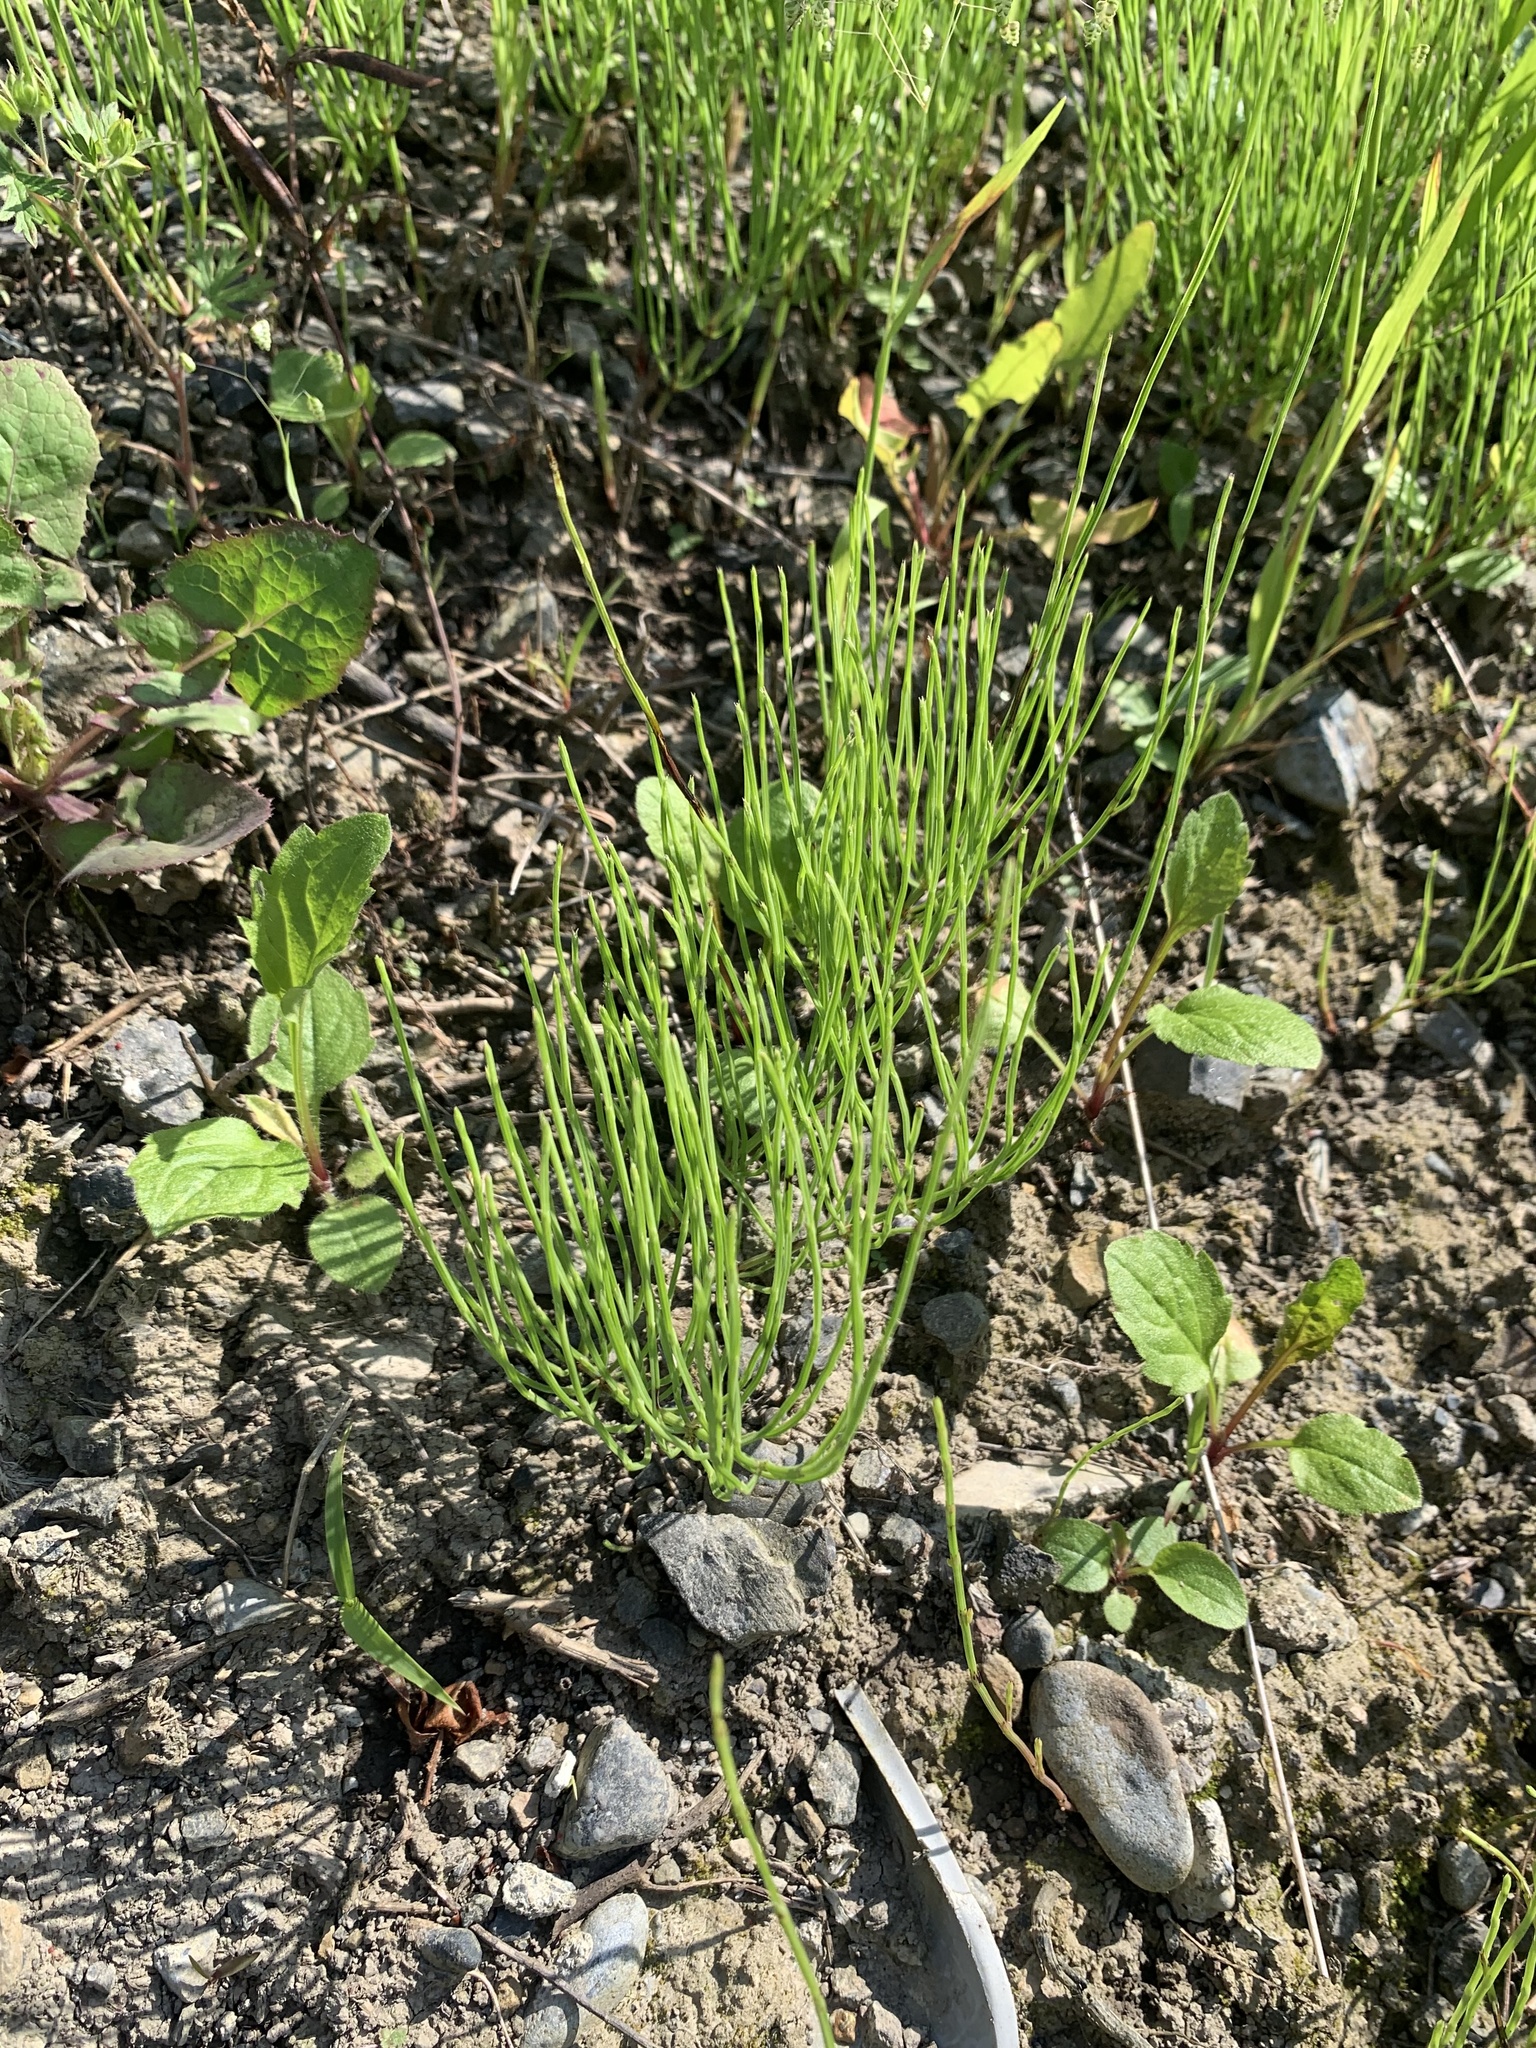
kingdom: Plantae
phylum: Tracheophyta
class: Polypodiopsida
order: Equisetales
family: Equisetaceae
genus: Equisetum
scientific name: Equisetum arvense
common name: Field horsetail
